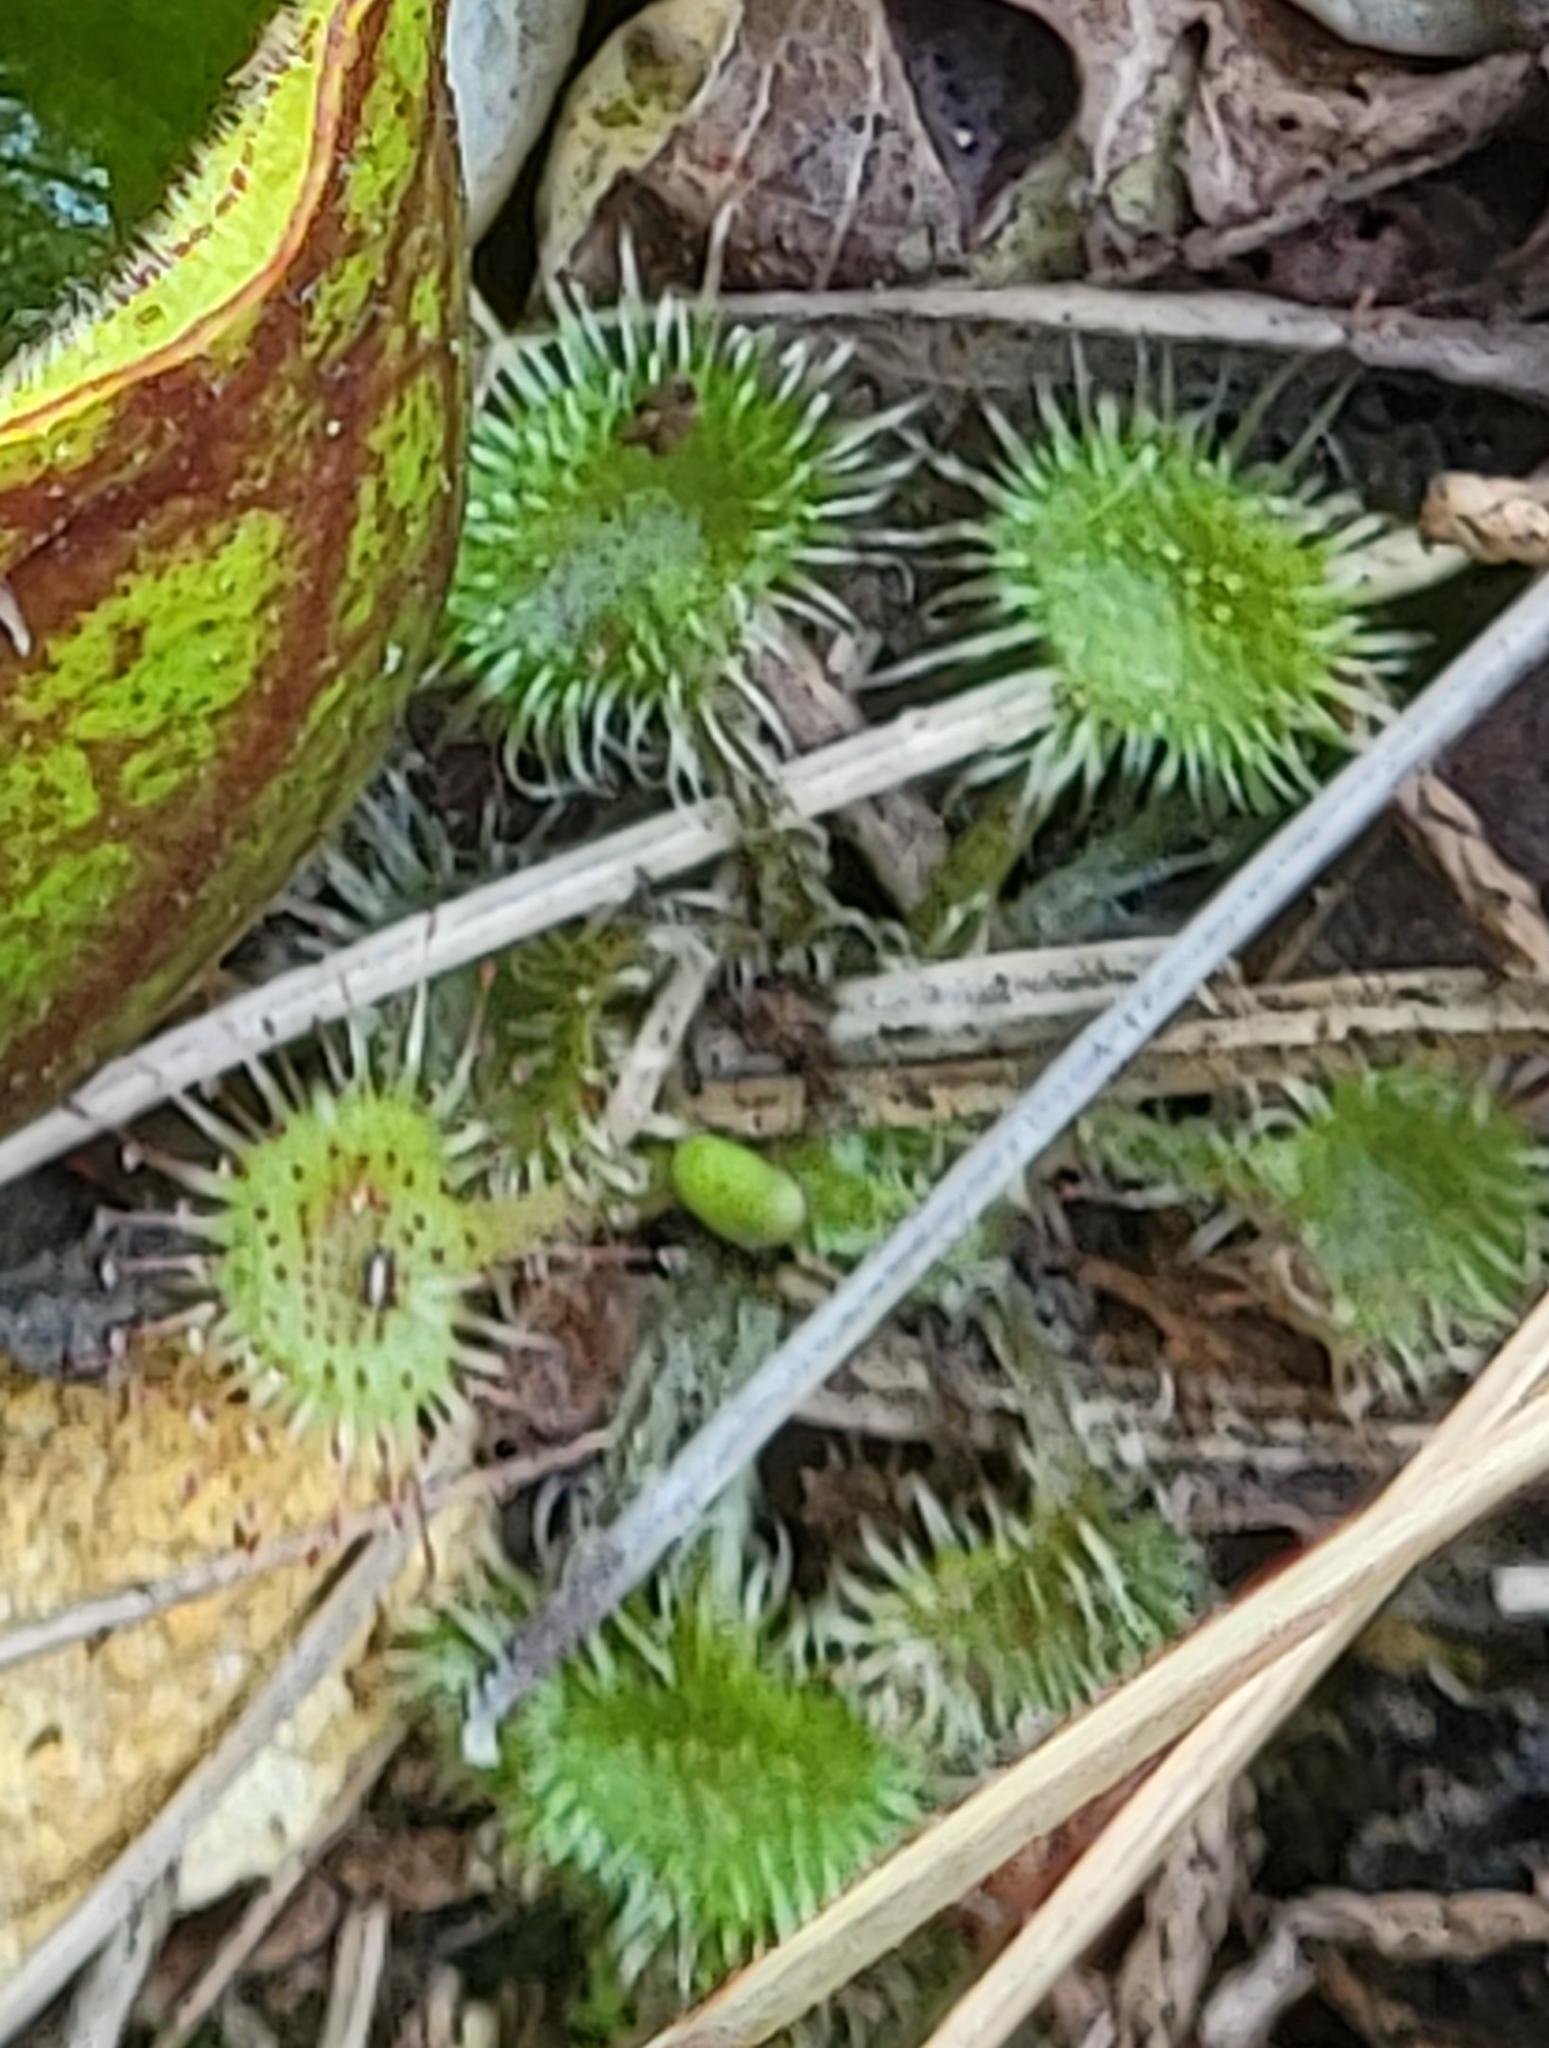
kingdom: Plantae
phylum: Tracheophyta
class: Magnoliopsida
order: Caryophyllales
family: Droseraceae
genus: Drosera
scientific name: Drosera rotundifolia
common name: Round-leaved sundew
